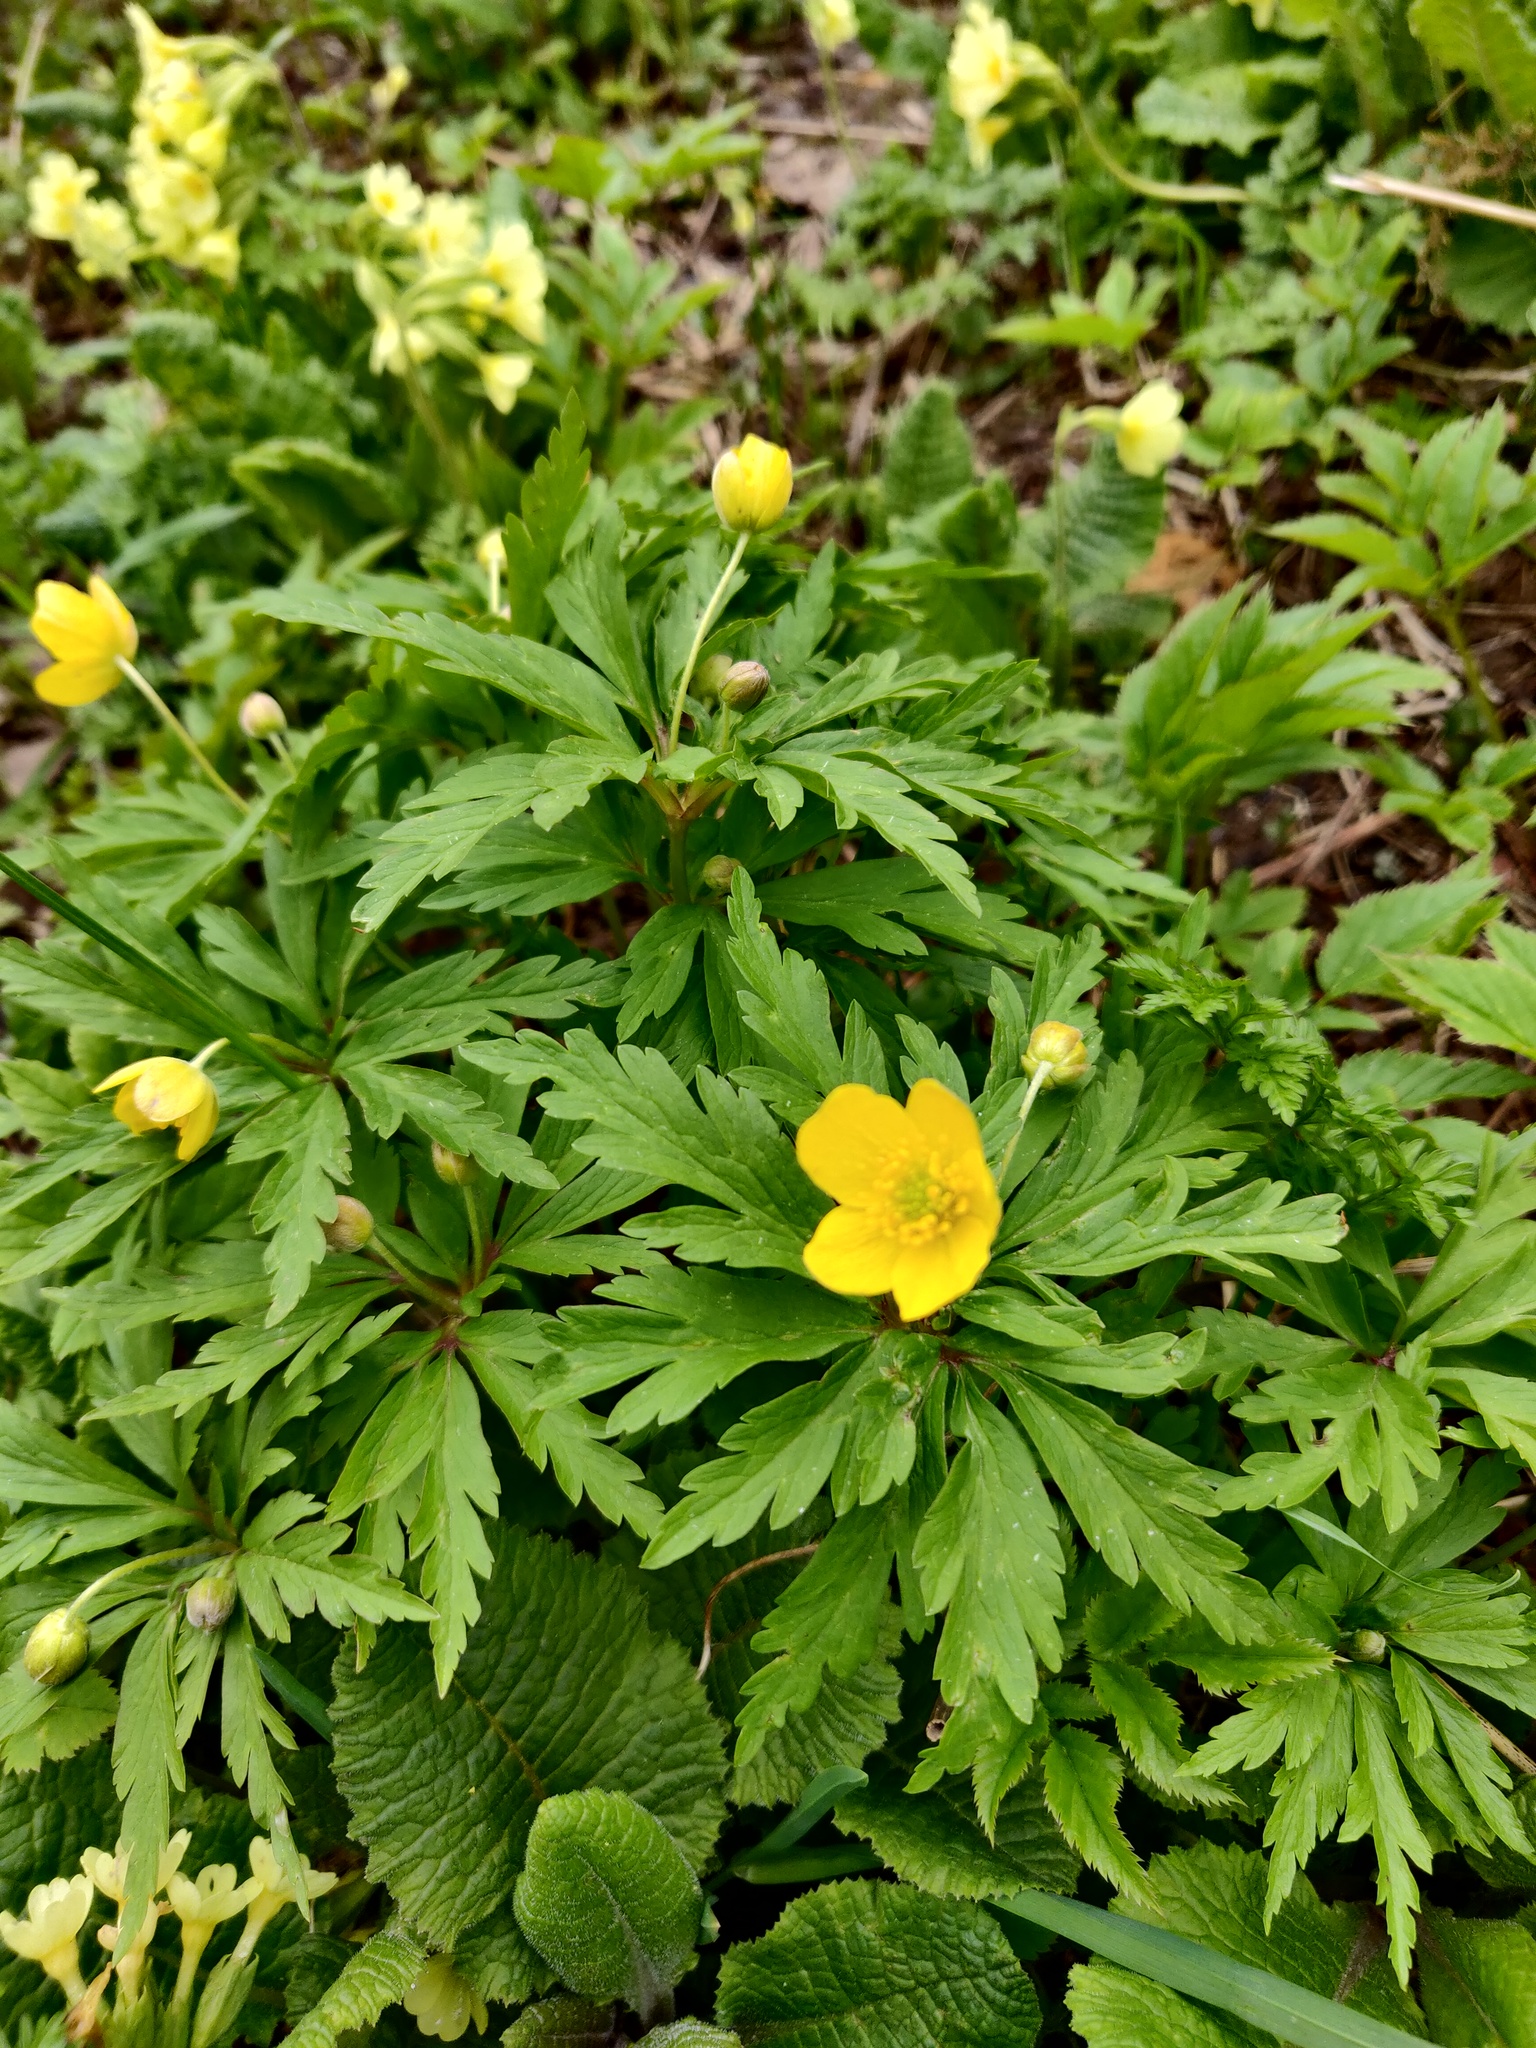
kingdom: Plantae
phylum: Tracheophyta
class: Magnoliopsida
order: Ranunculales
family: Ranunculaceae
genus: Anemone
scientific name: Anemone ranunculoides
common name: Yellow anemone
